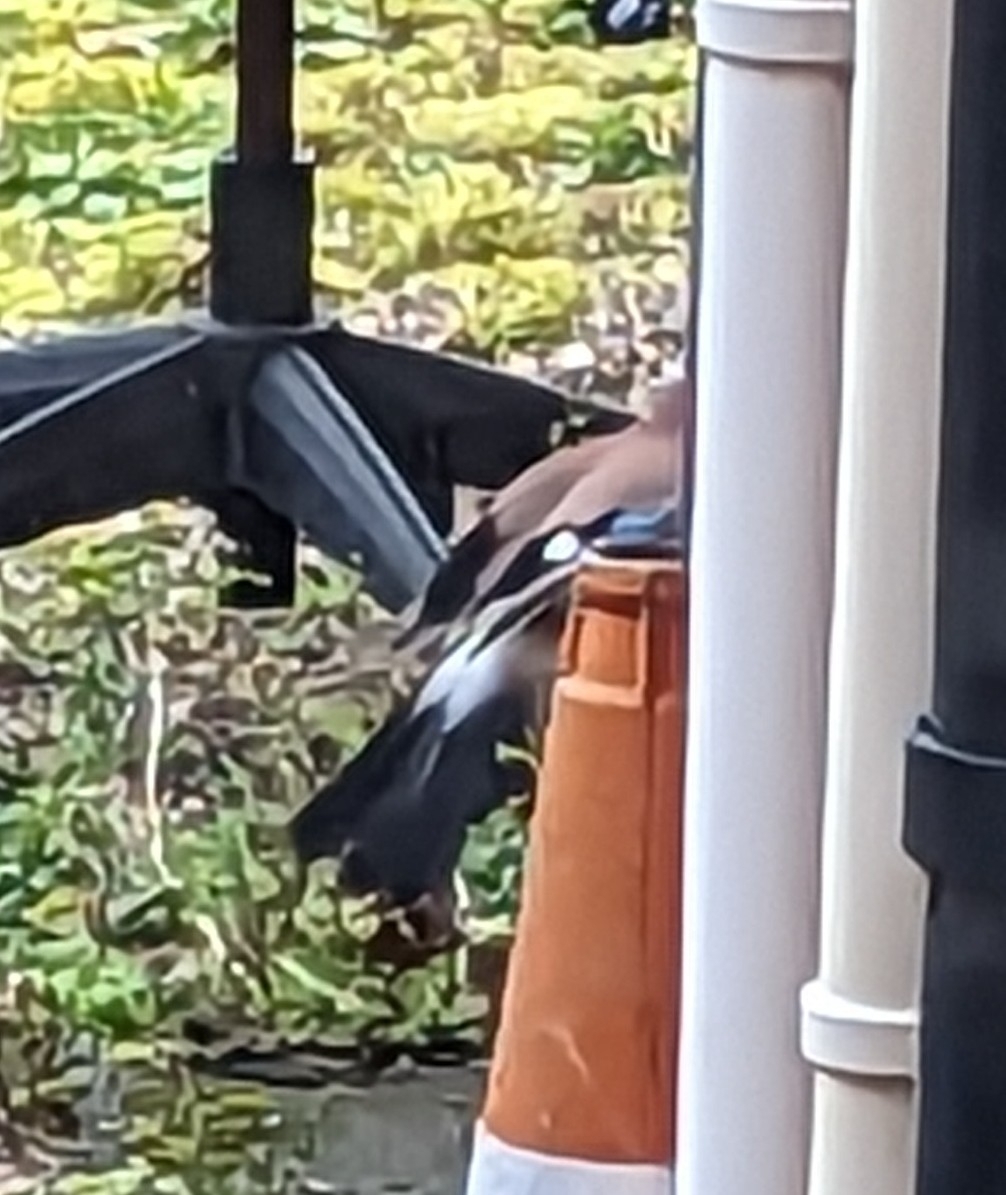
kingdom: Animalia
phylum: Chordata
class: Aves
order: Passeriformes
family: Corvidae
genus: Garrulus
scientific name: Garrulus glandarius
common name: Eurasian jay
